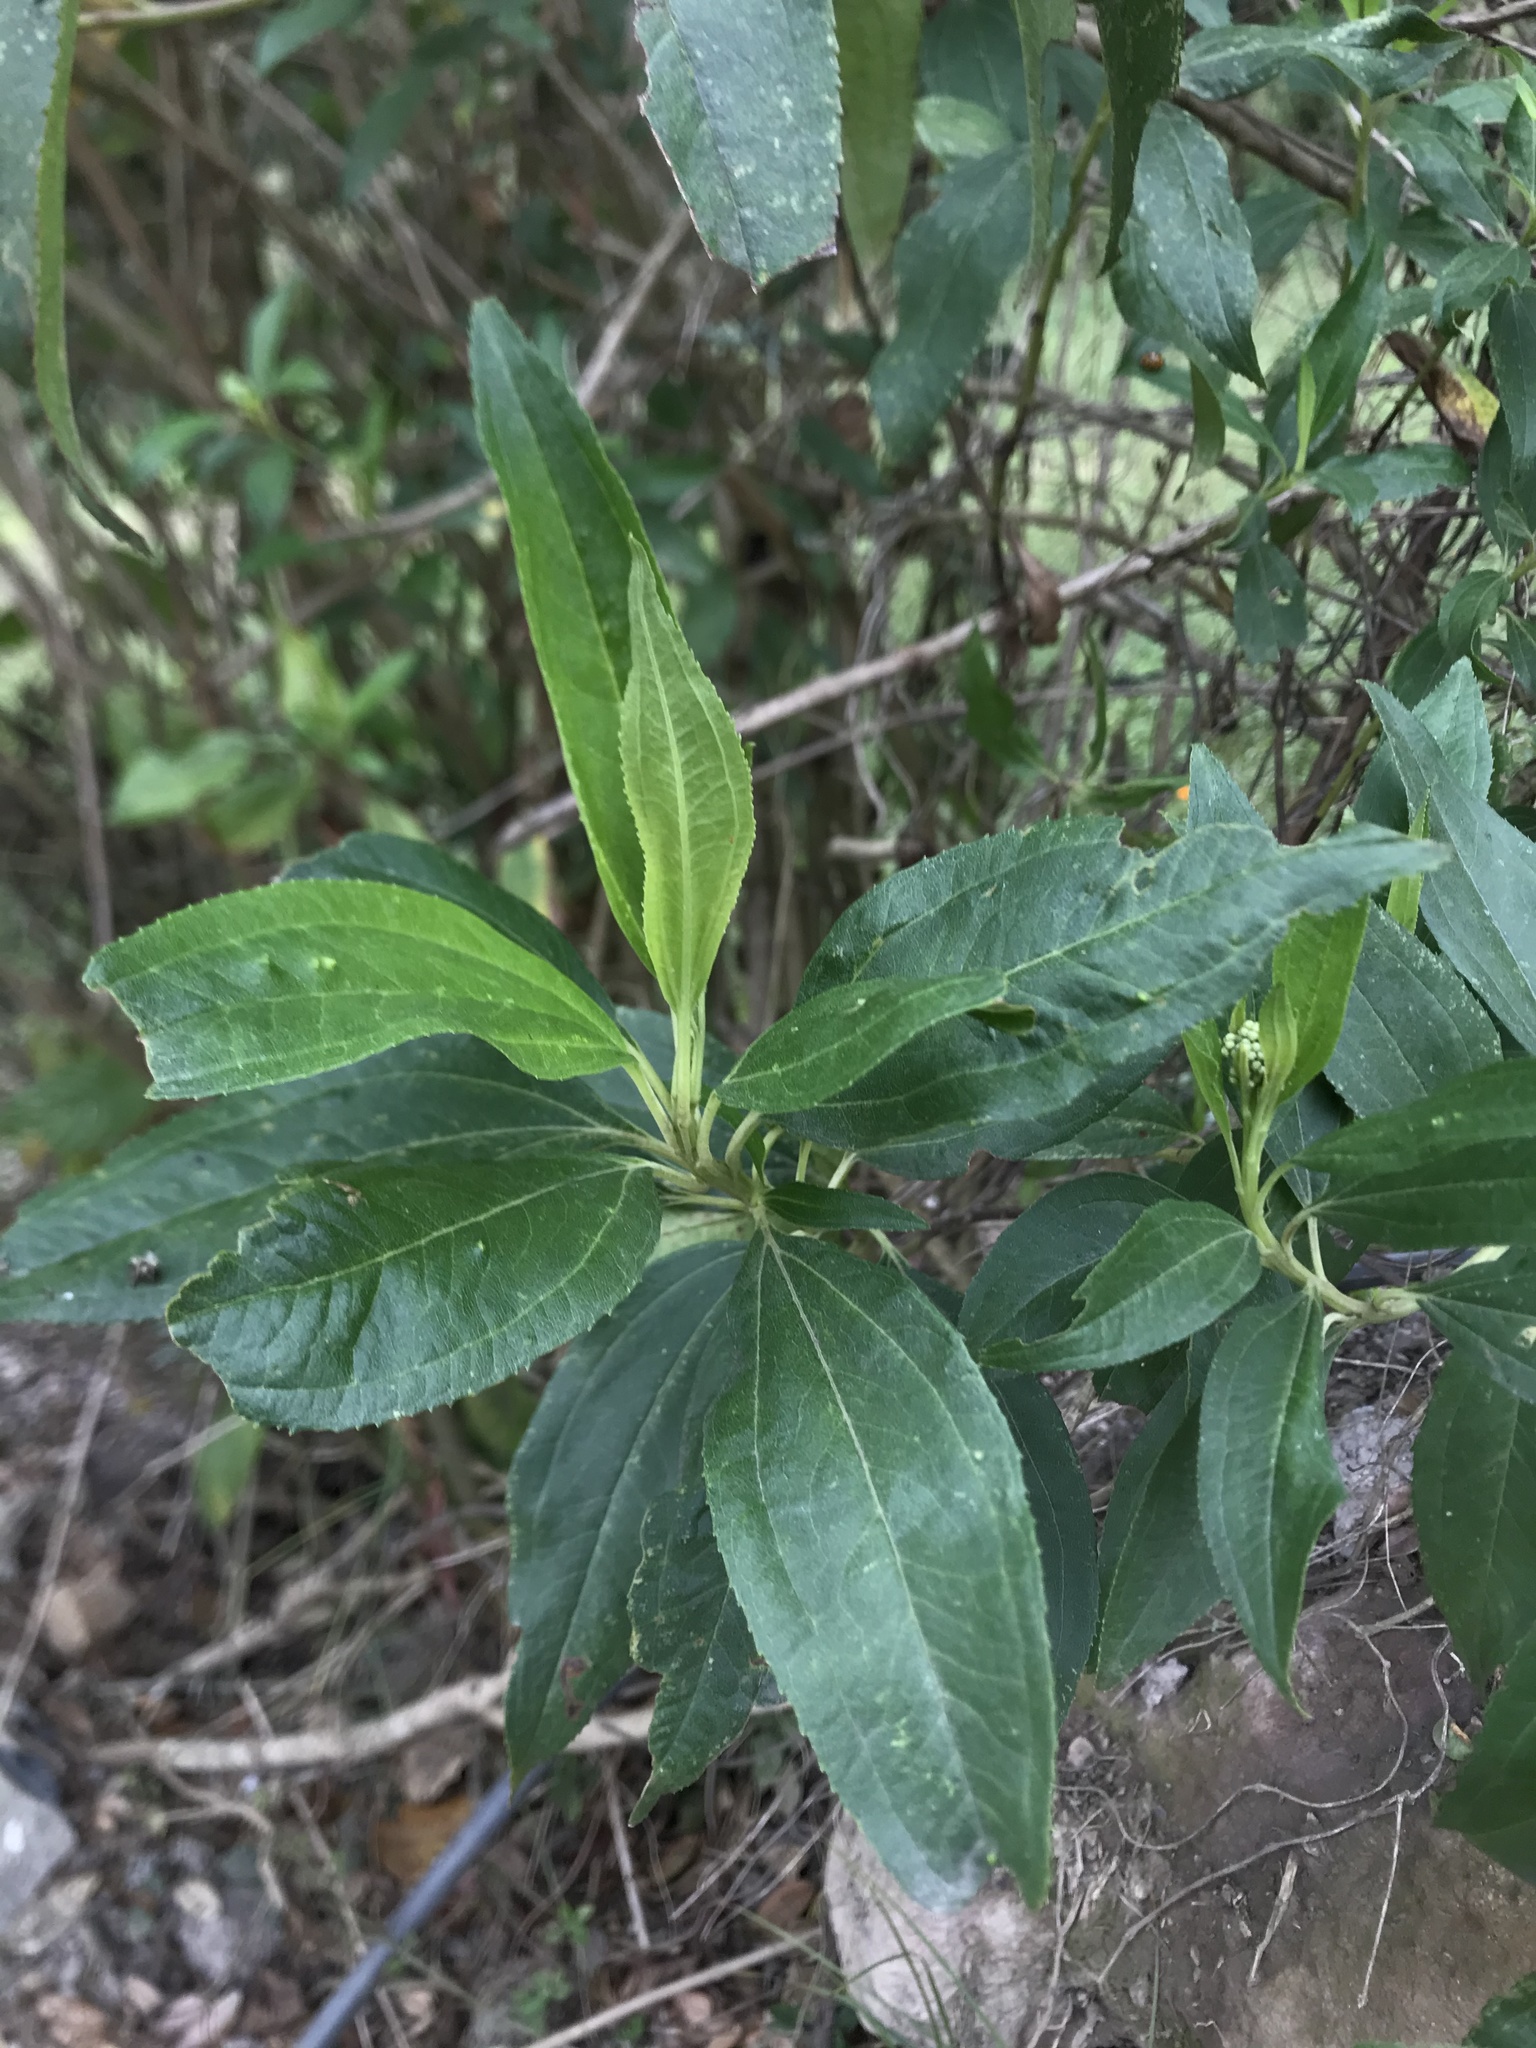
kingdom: Plantae
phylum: Tracheophyta
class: Magnoliopsida
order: Asterales
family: Asteraceae
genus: Baccharis
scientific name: Baccharis latifolia
